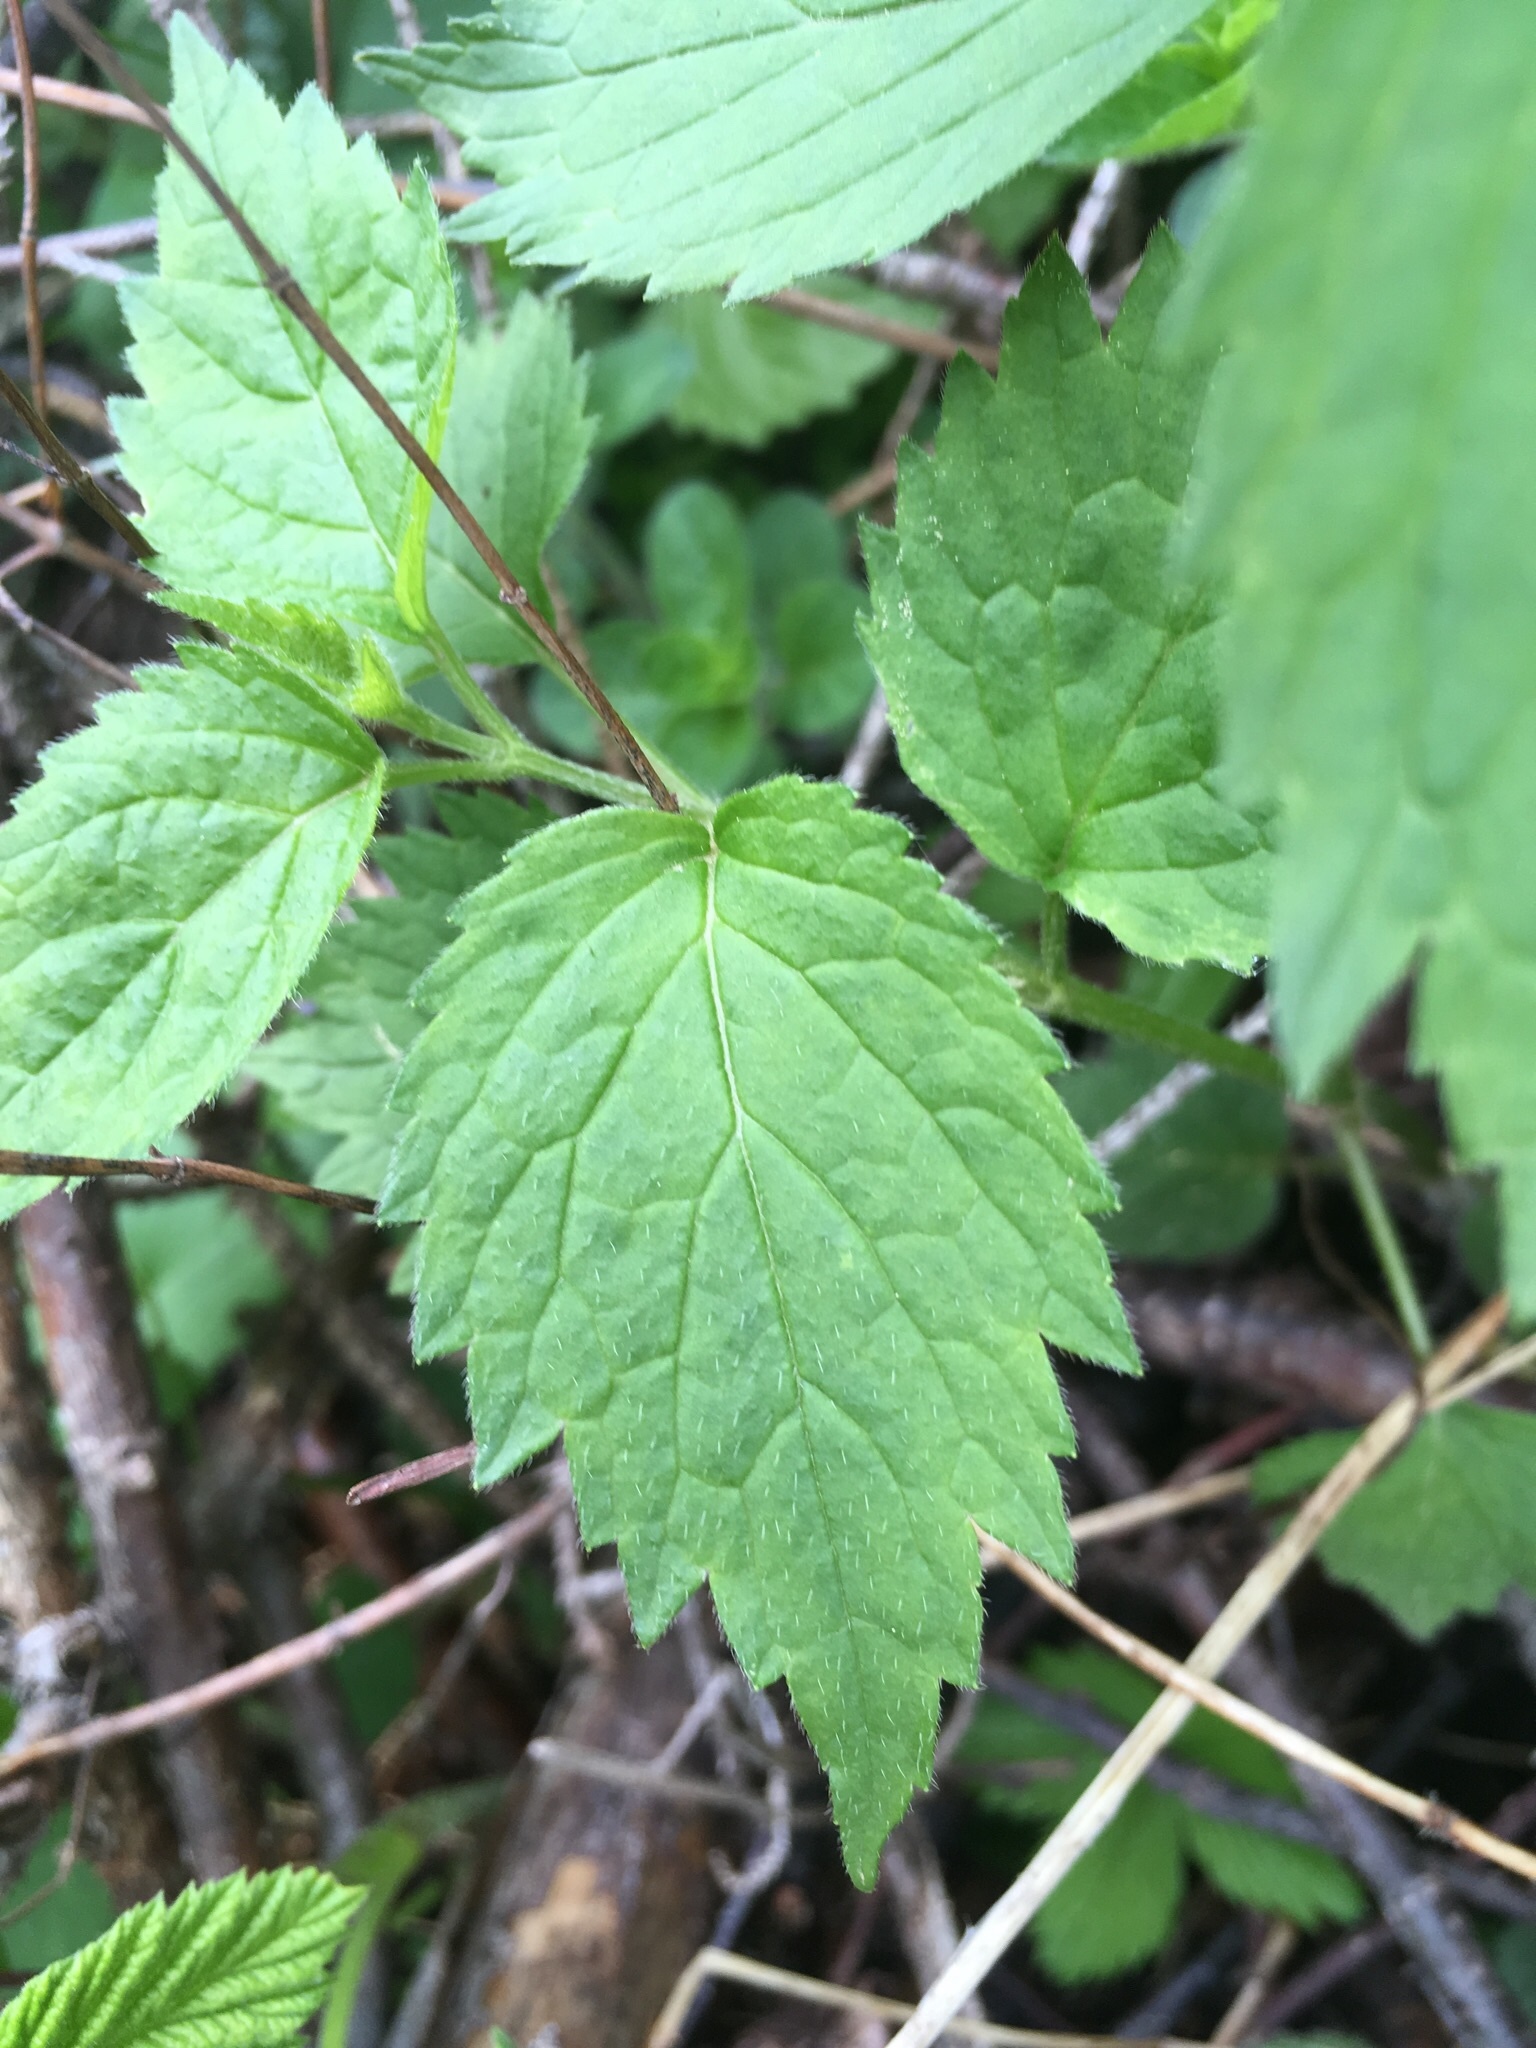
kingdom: Plantae
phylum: Tracheophyta
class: Magnoliopsida
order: Lamiales
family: Lamiaceae
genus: Lamium
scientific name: Lamium galeobdolon
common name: Yellow archangel
